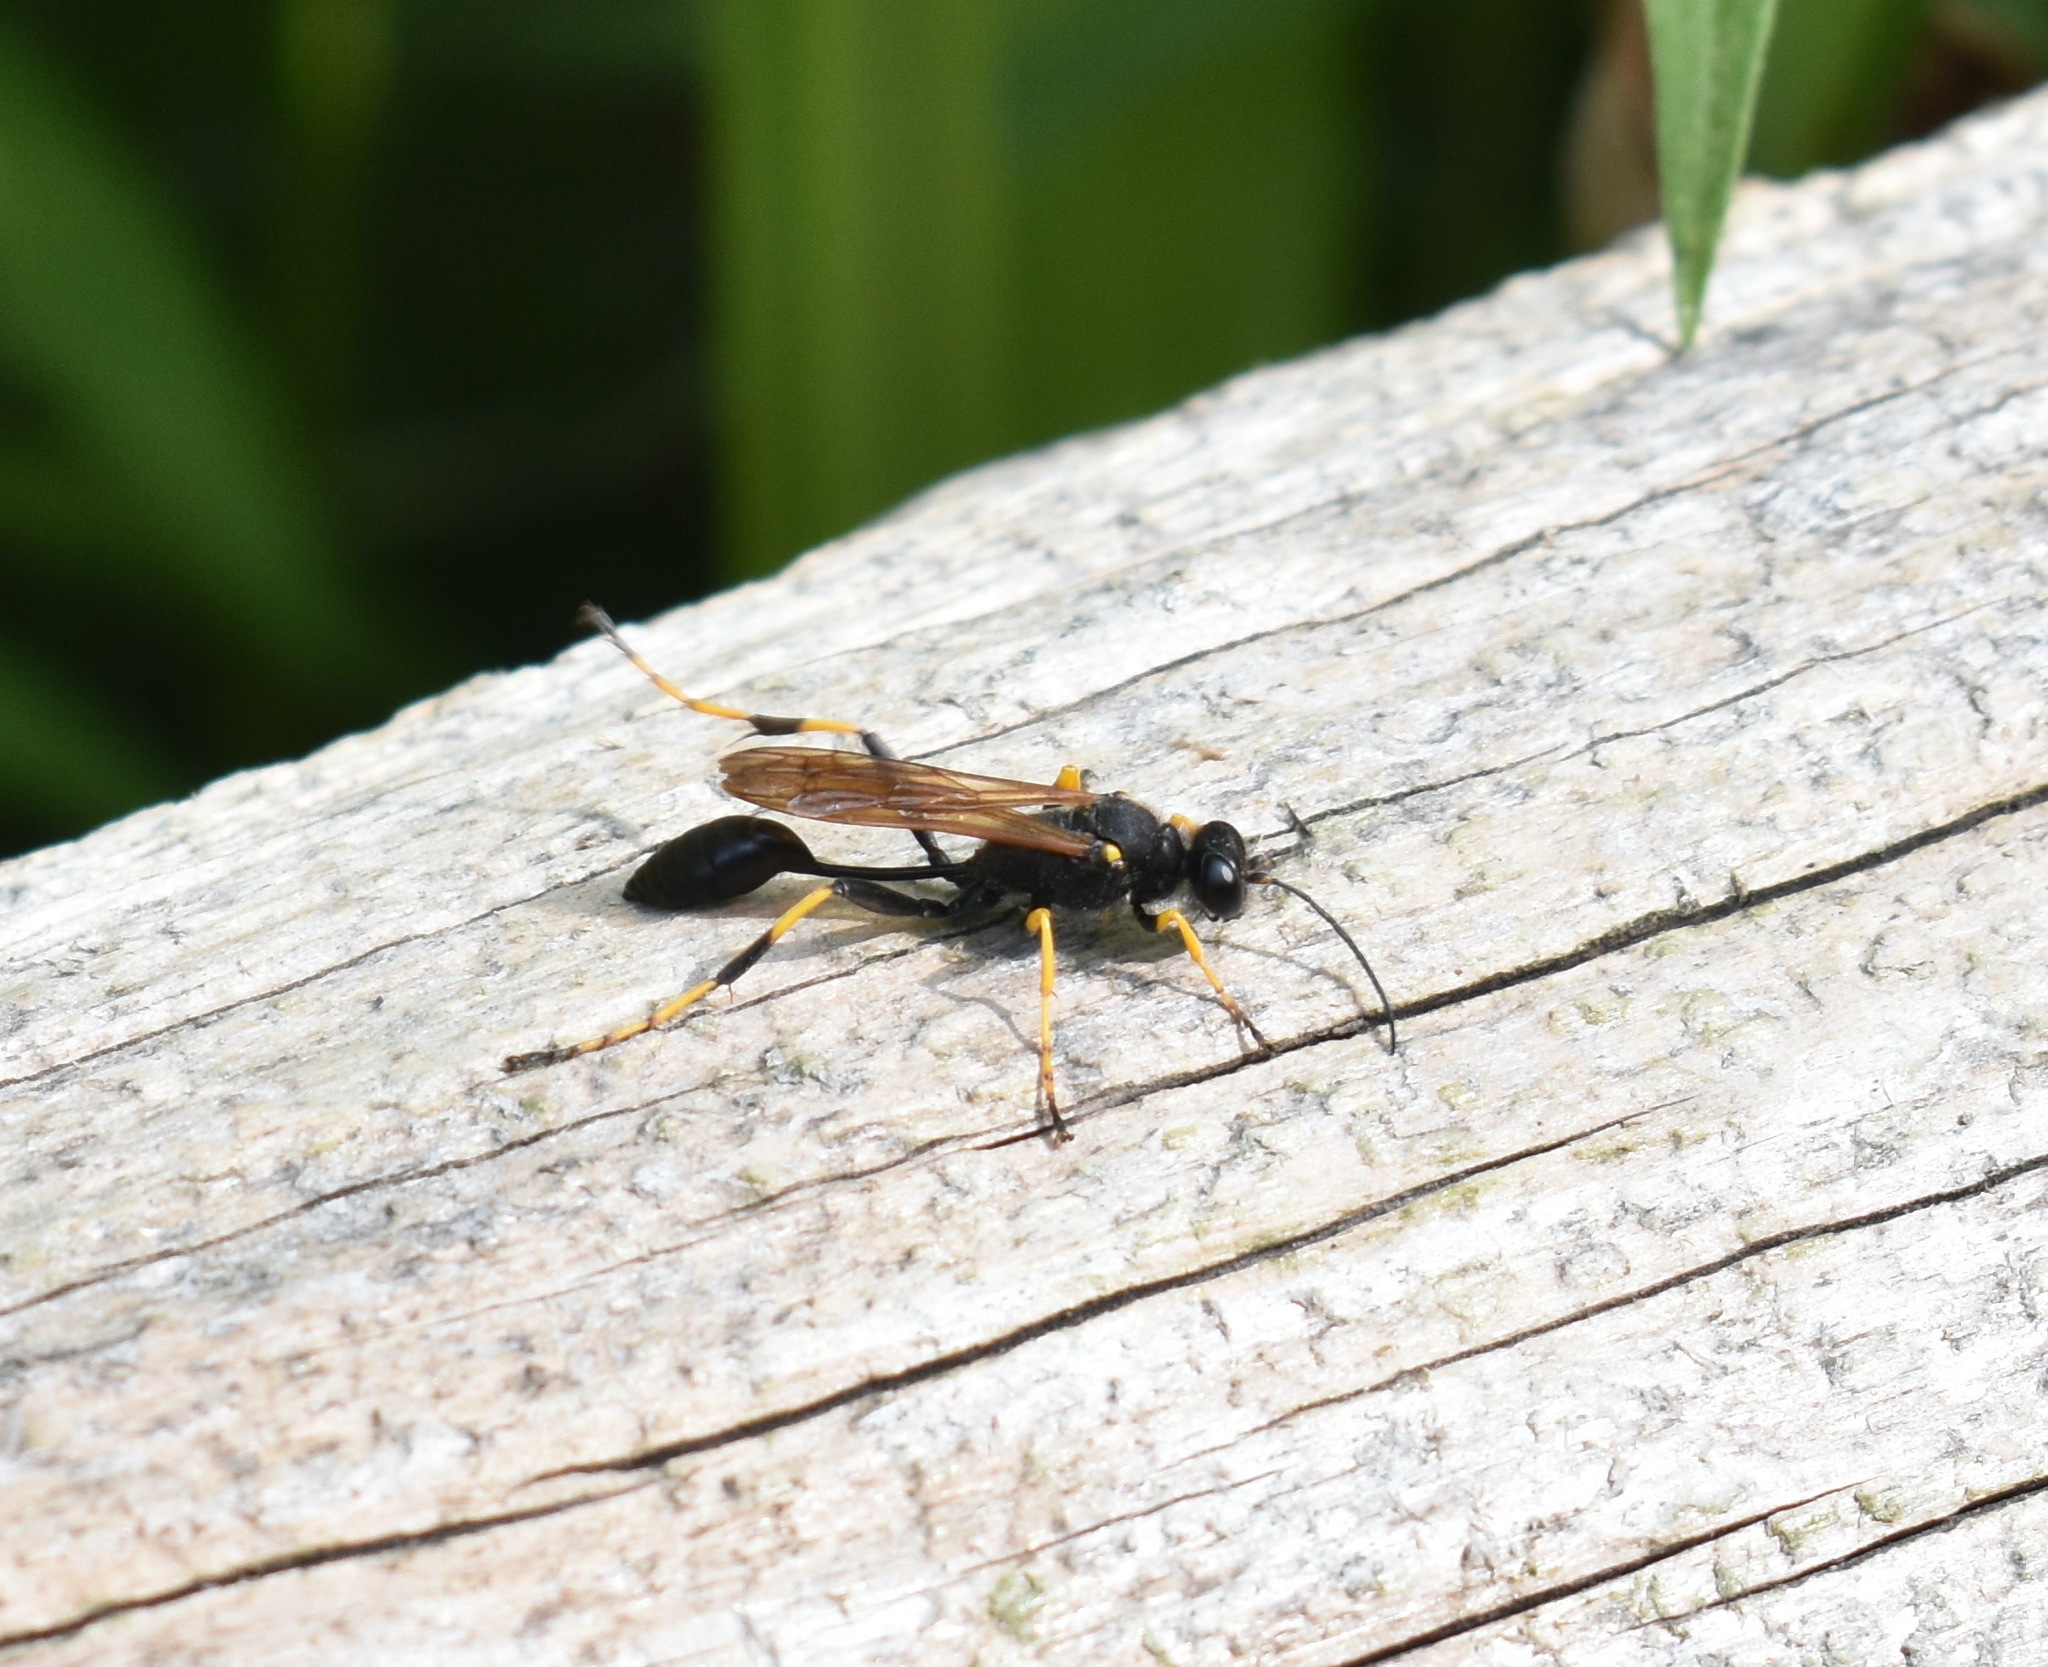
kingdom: Animalia
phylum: Arthropoda
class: Insecta
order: Hymenoptera
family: Sphecidae
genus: Sceliphron
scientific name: Sceliphron caementarium
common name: Mud dauber
